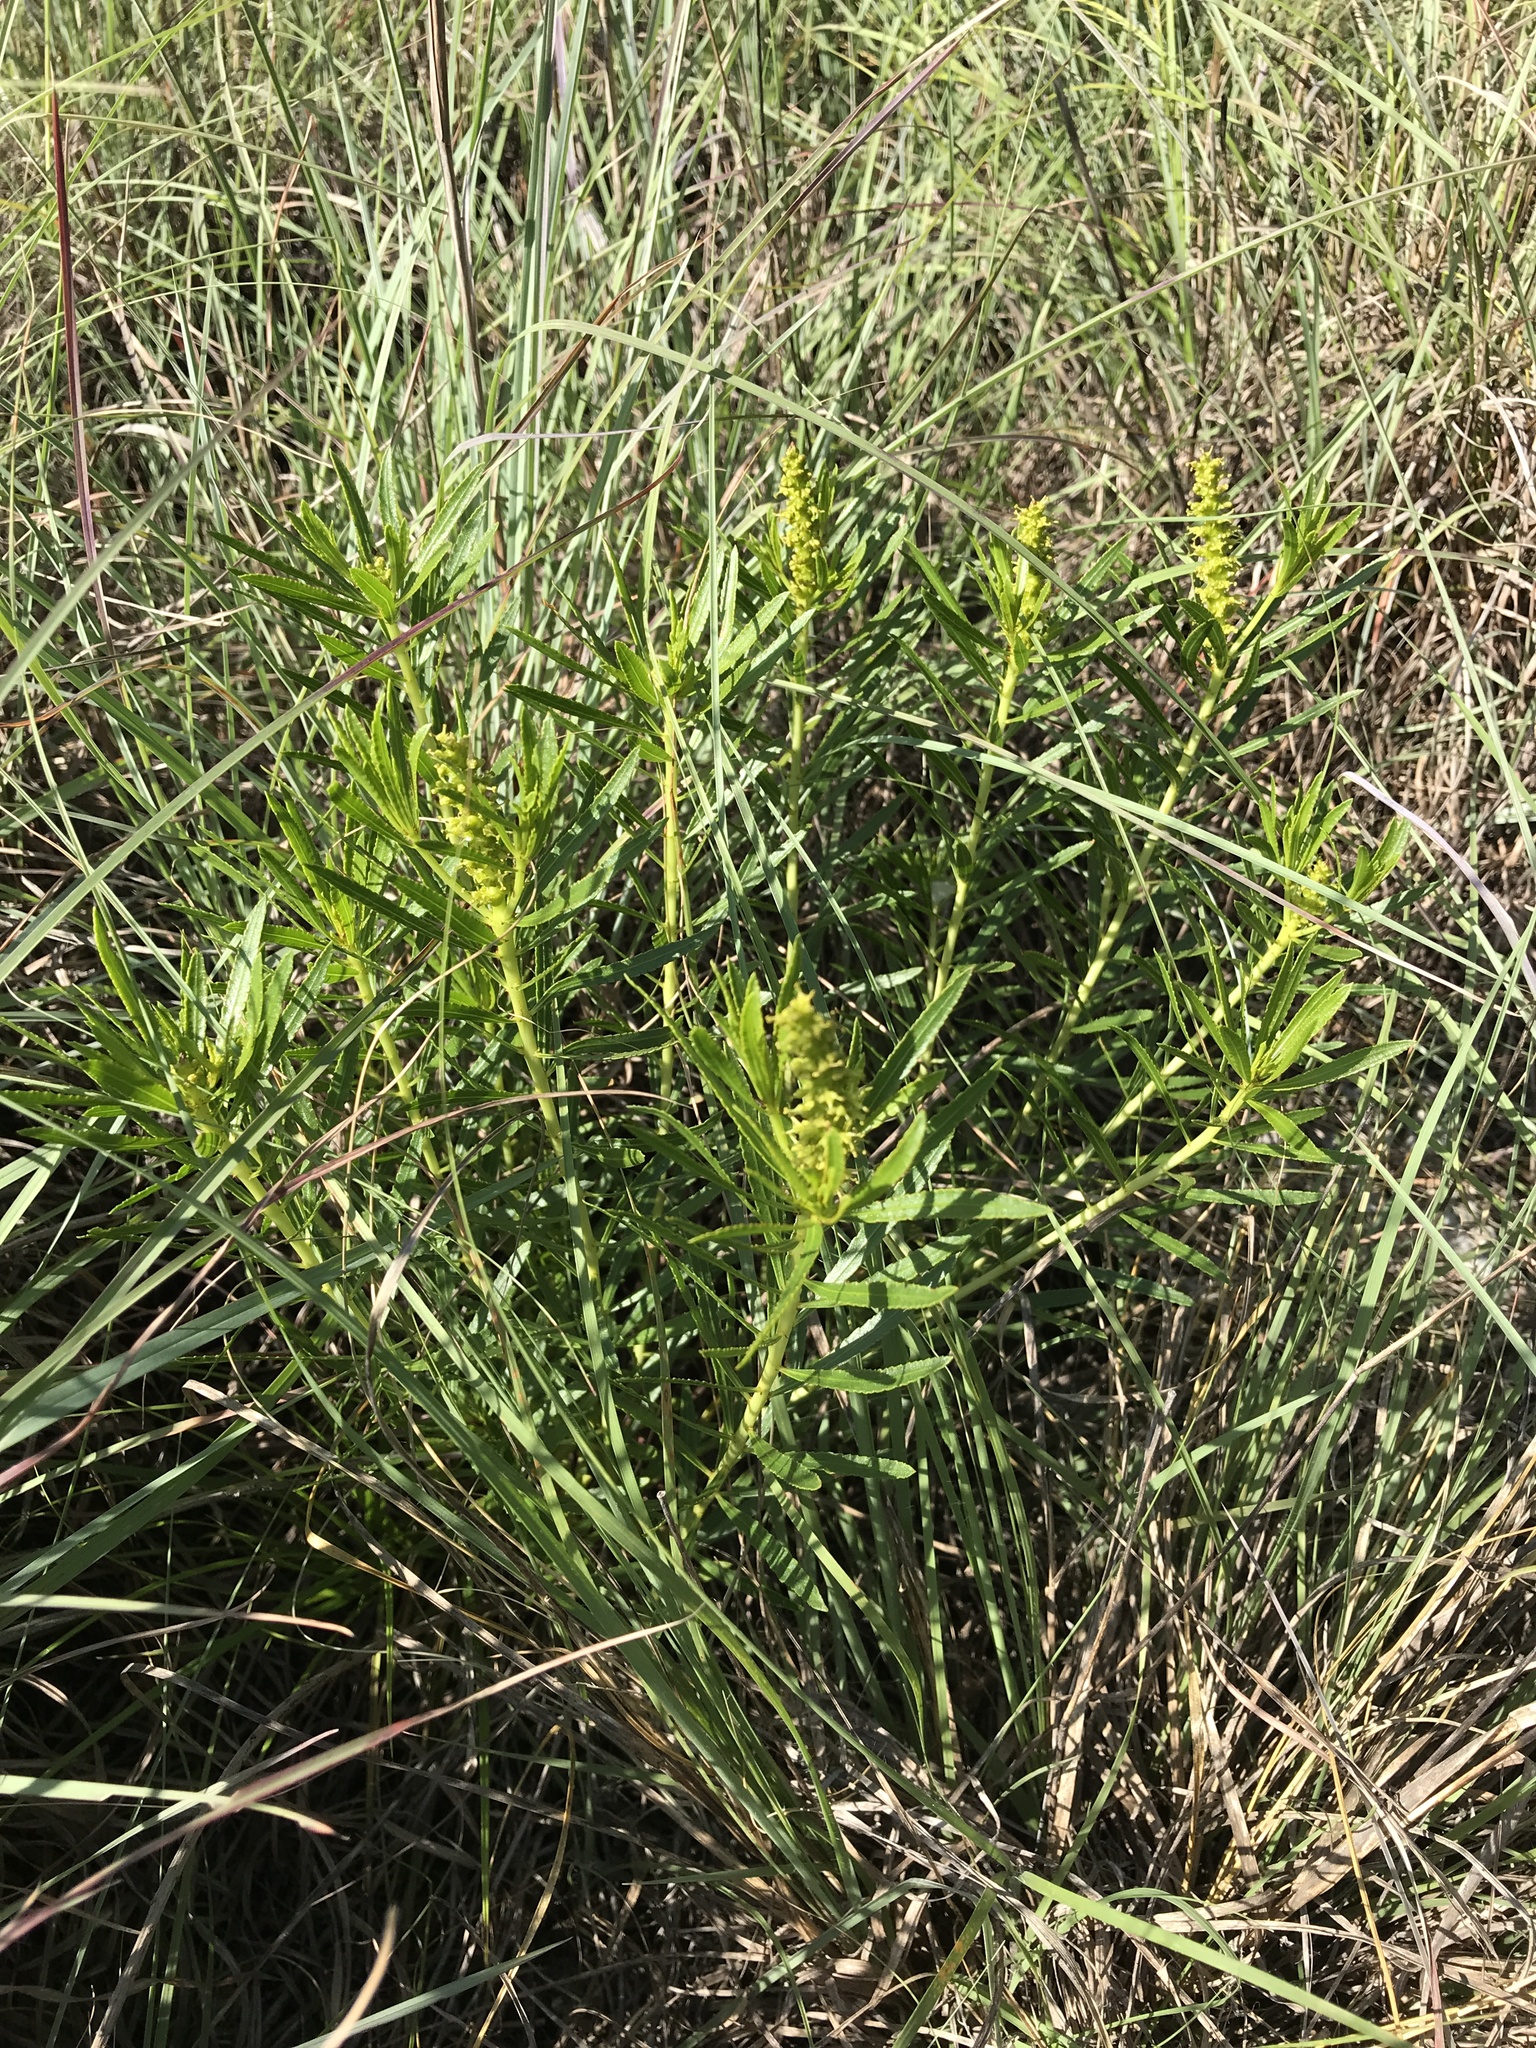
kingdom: Plantae
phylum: Tracheophyta
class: Magnoliopsida
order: Malpighiales
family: Euphorbiaceae
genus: Stillingia
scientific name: Stillingia texana
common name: Texas stillingia
